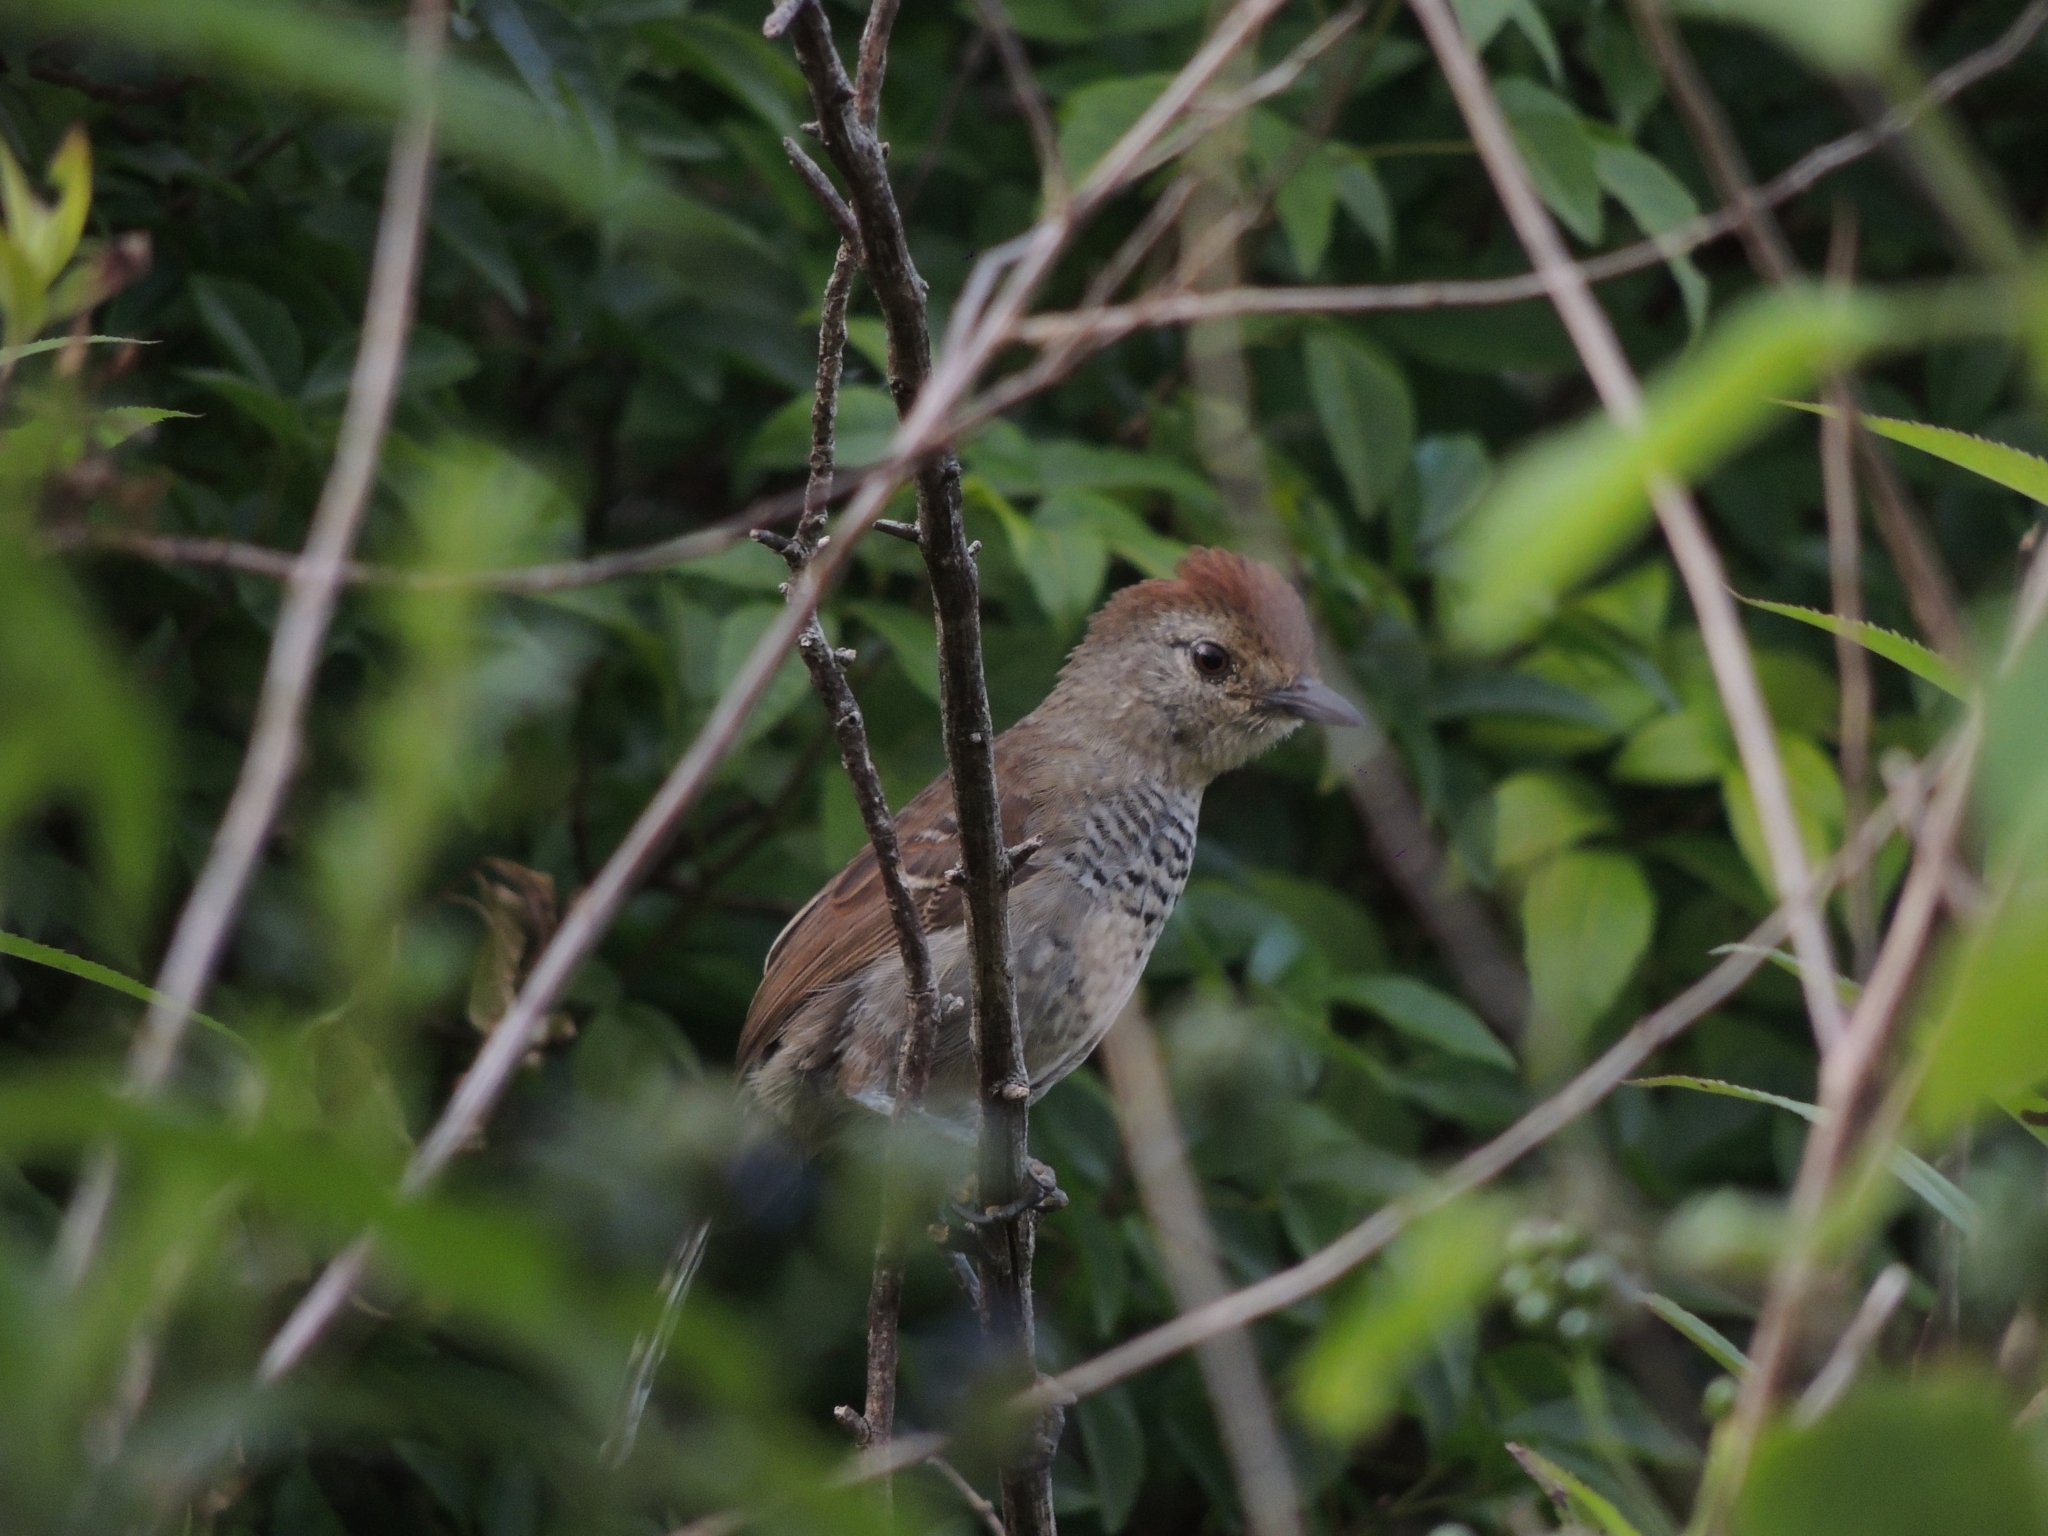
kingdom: Animalia
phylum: Chordata
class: Aves
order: Passeriformes
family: Thamnophilidae
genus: Thamnophilus
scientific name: Thamnophilus ruficapillus
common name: Rufous-capped antshrike
